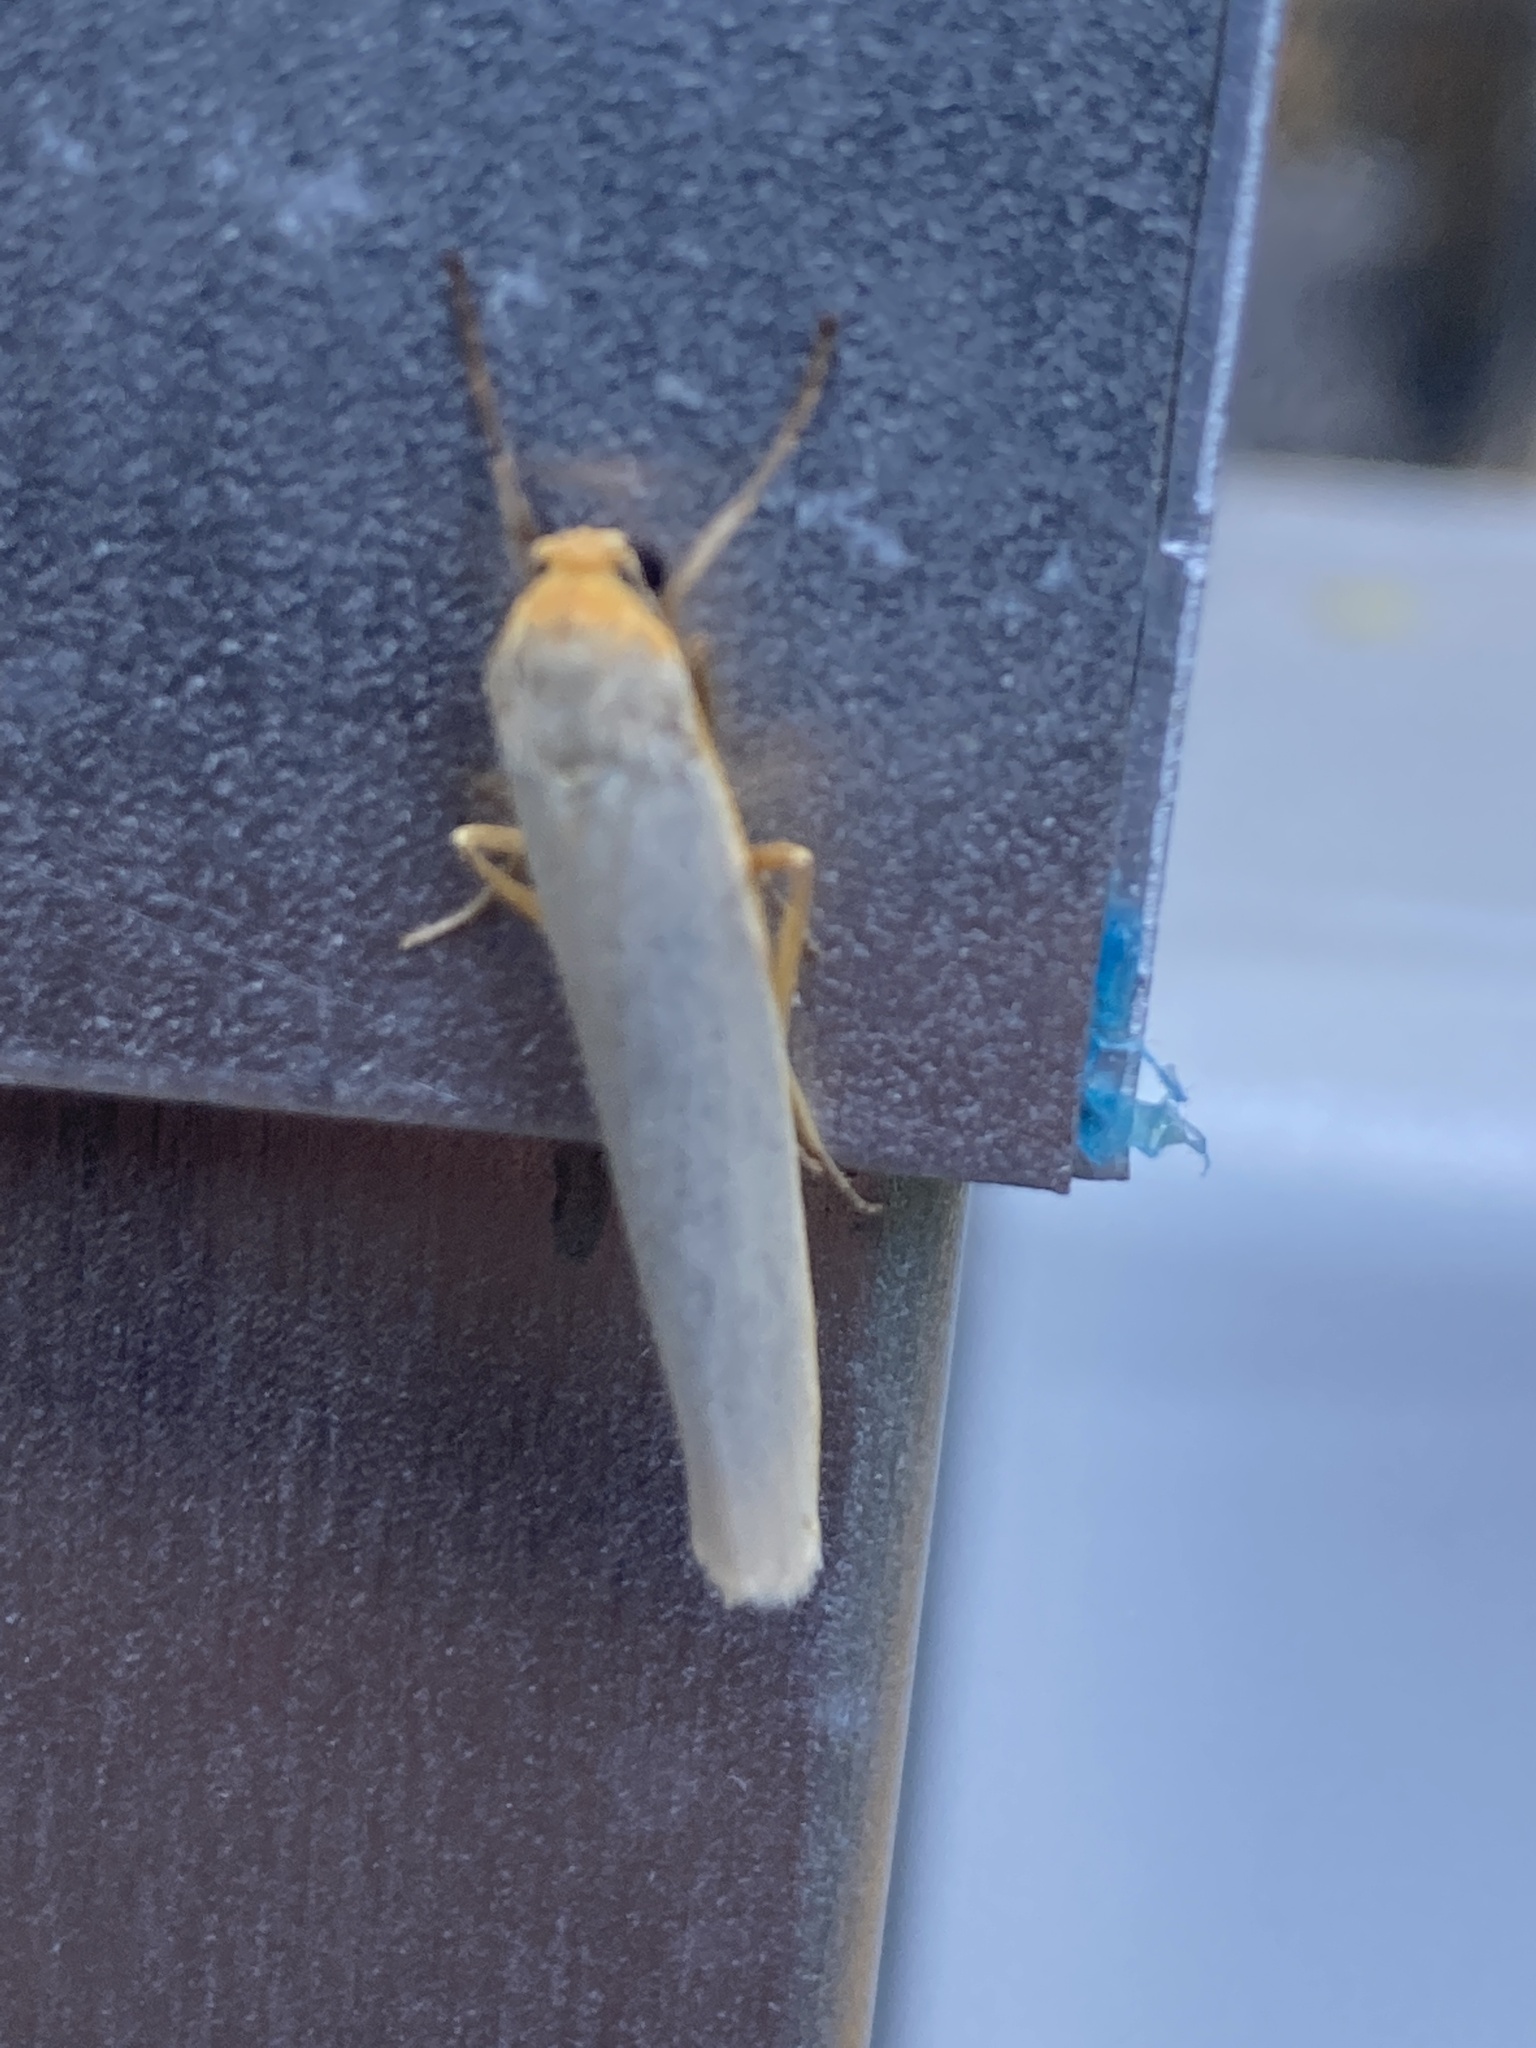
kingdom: Animalia
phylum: Arthropoda
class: Insecta
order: Lepidoptera
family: Erebidae
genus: Manulea
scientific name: Manulea complana
